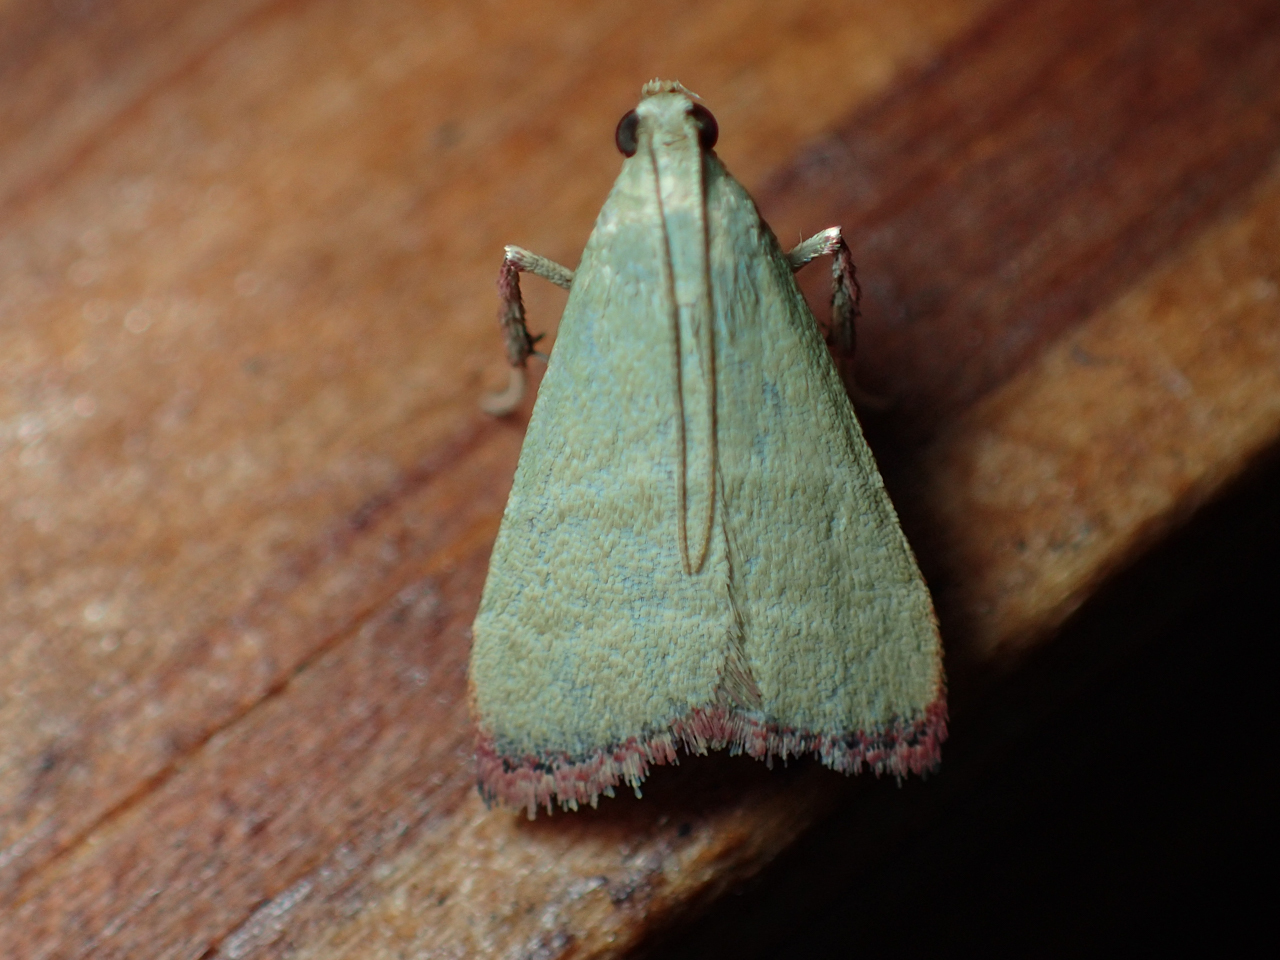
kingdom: Animalia
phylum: Arthropoda
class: Insecta
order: Lepidoptera
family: Pyralidae
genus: Arta
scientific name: Arta olivalis
